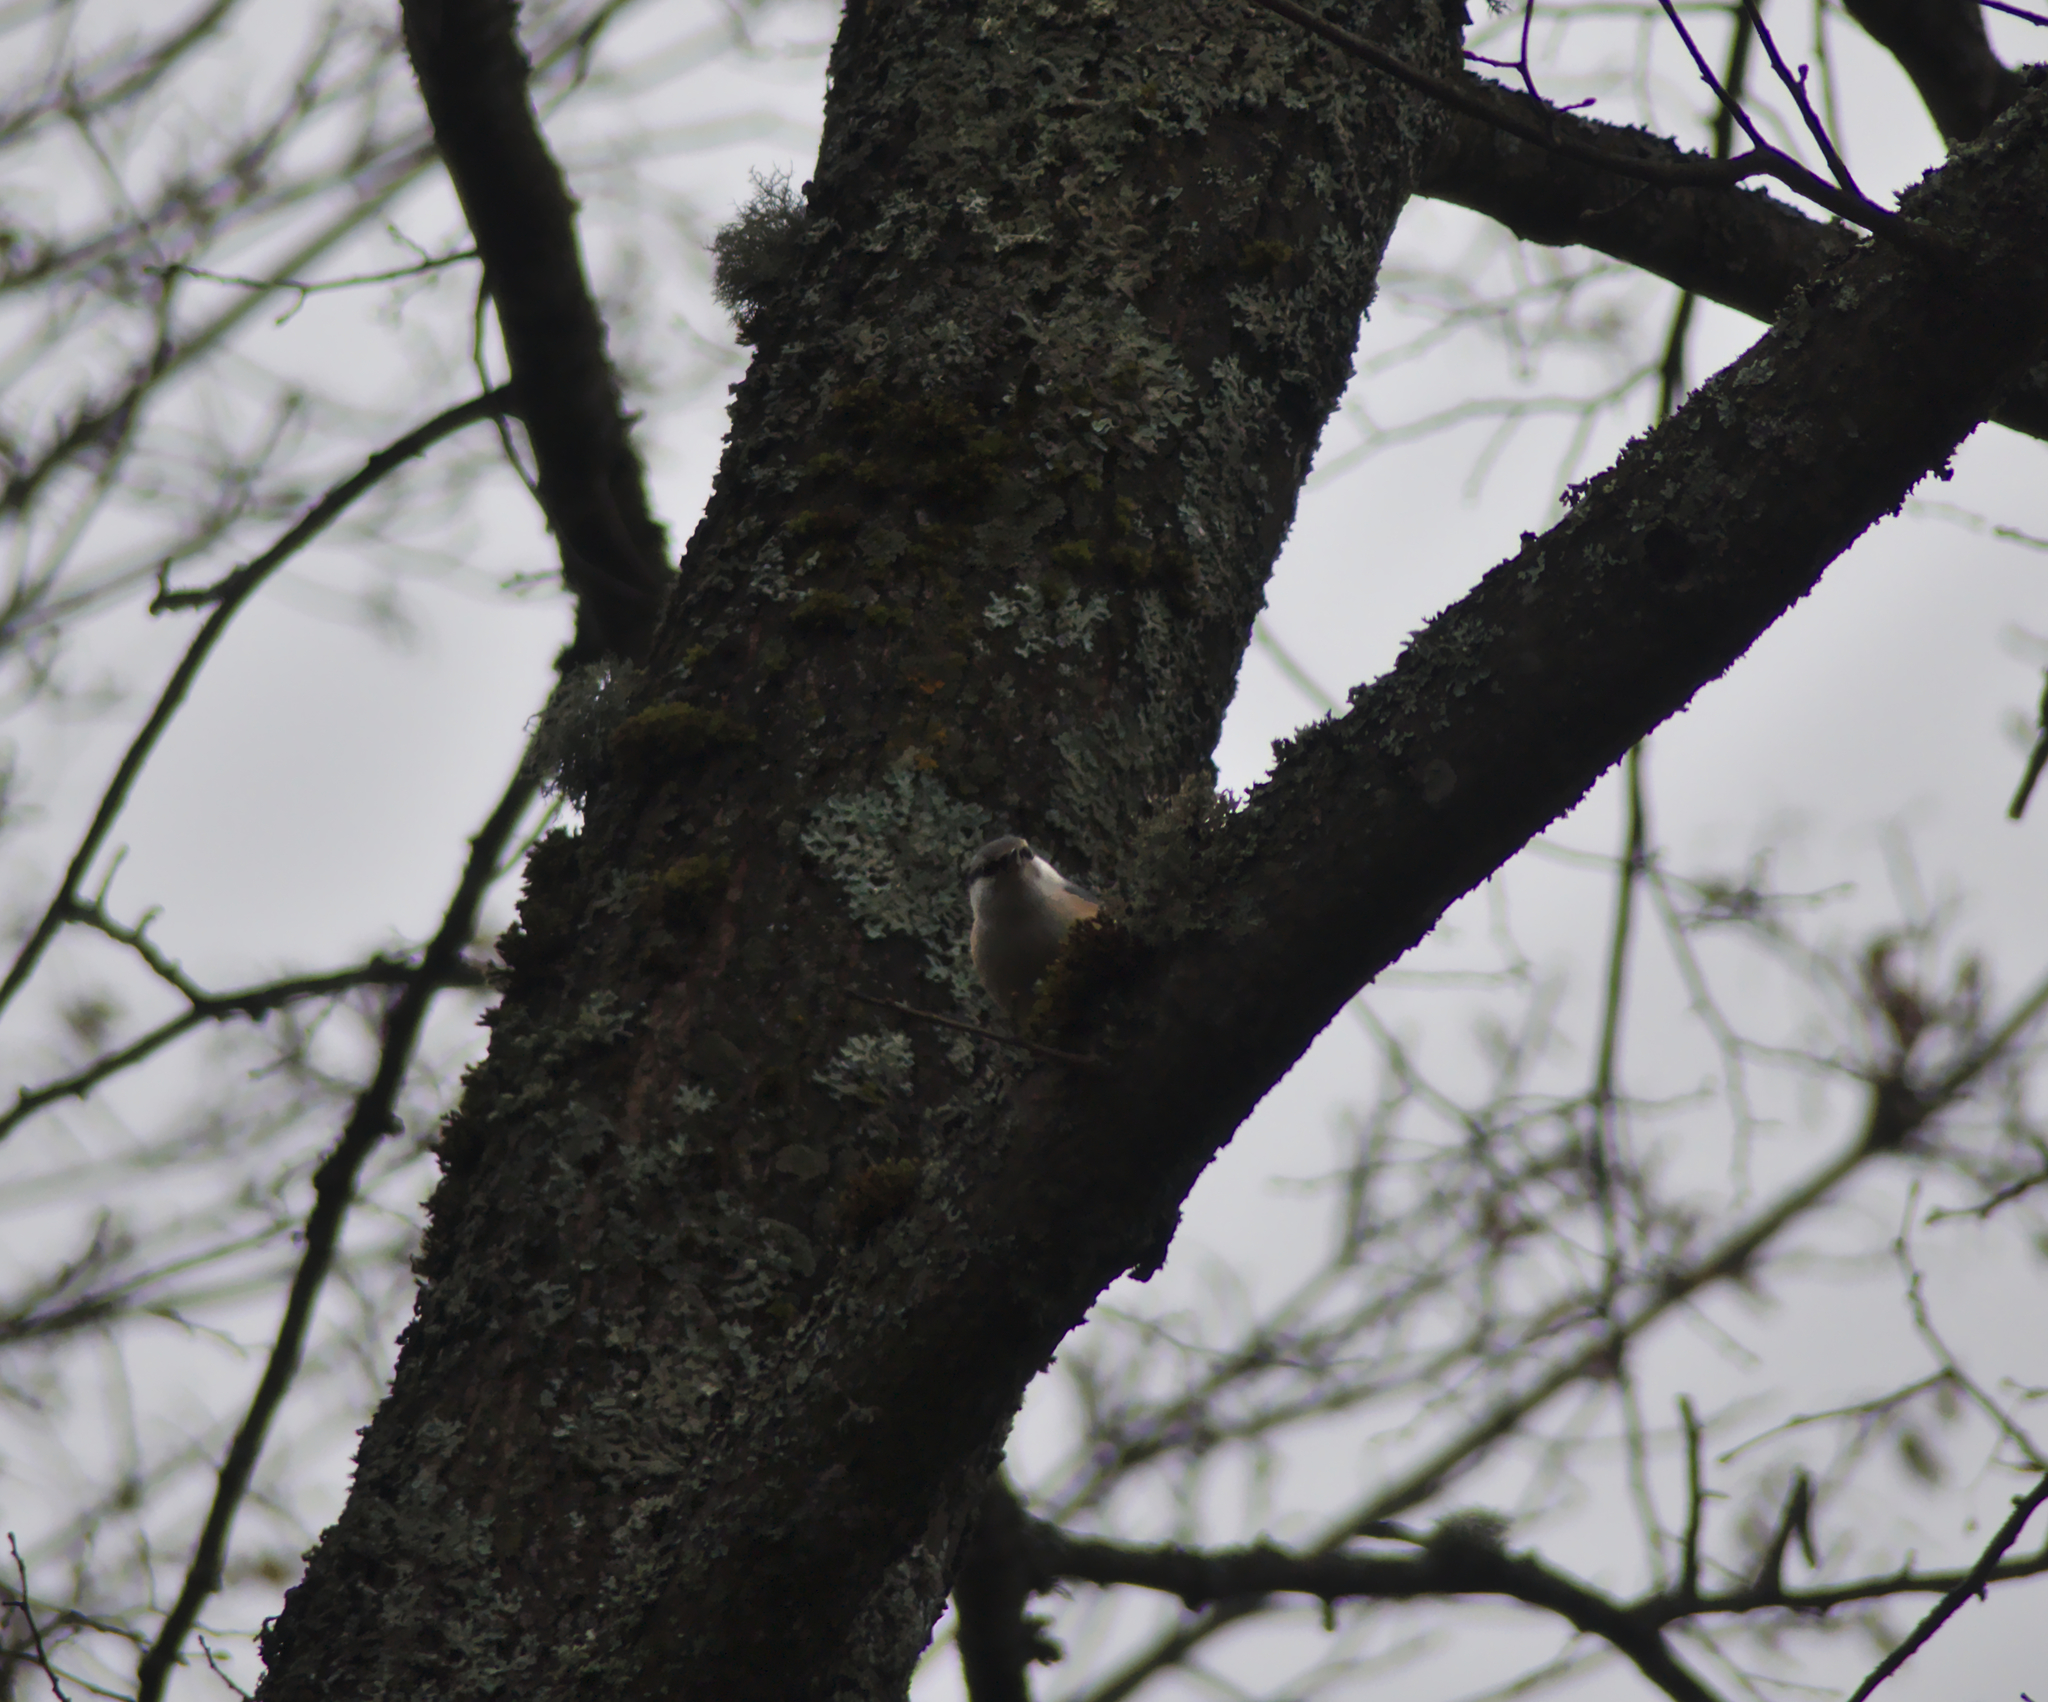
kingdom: Animalia
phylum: Chordata
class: Aves
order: Passeriformes
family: Sittidae
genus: Sitta
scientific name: Sitta europaea
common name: Eurasian nuthatch
